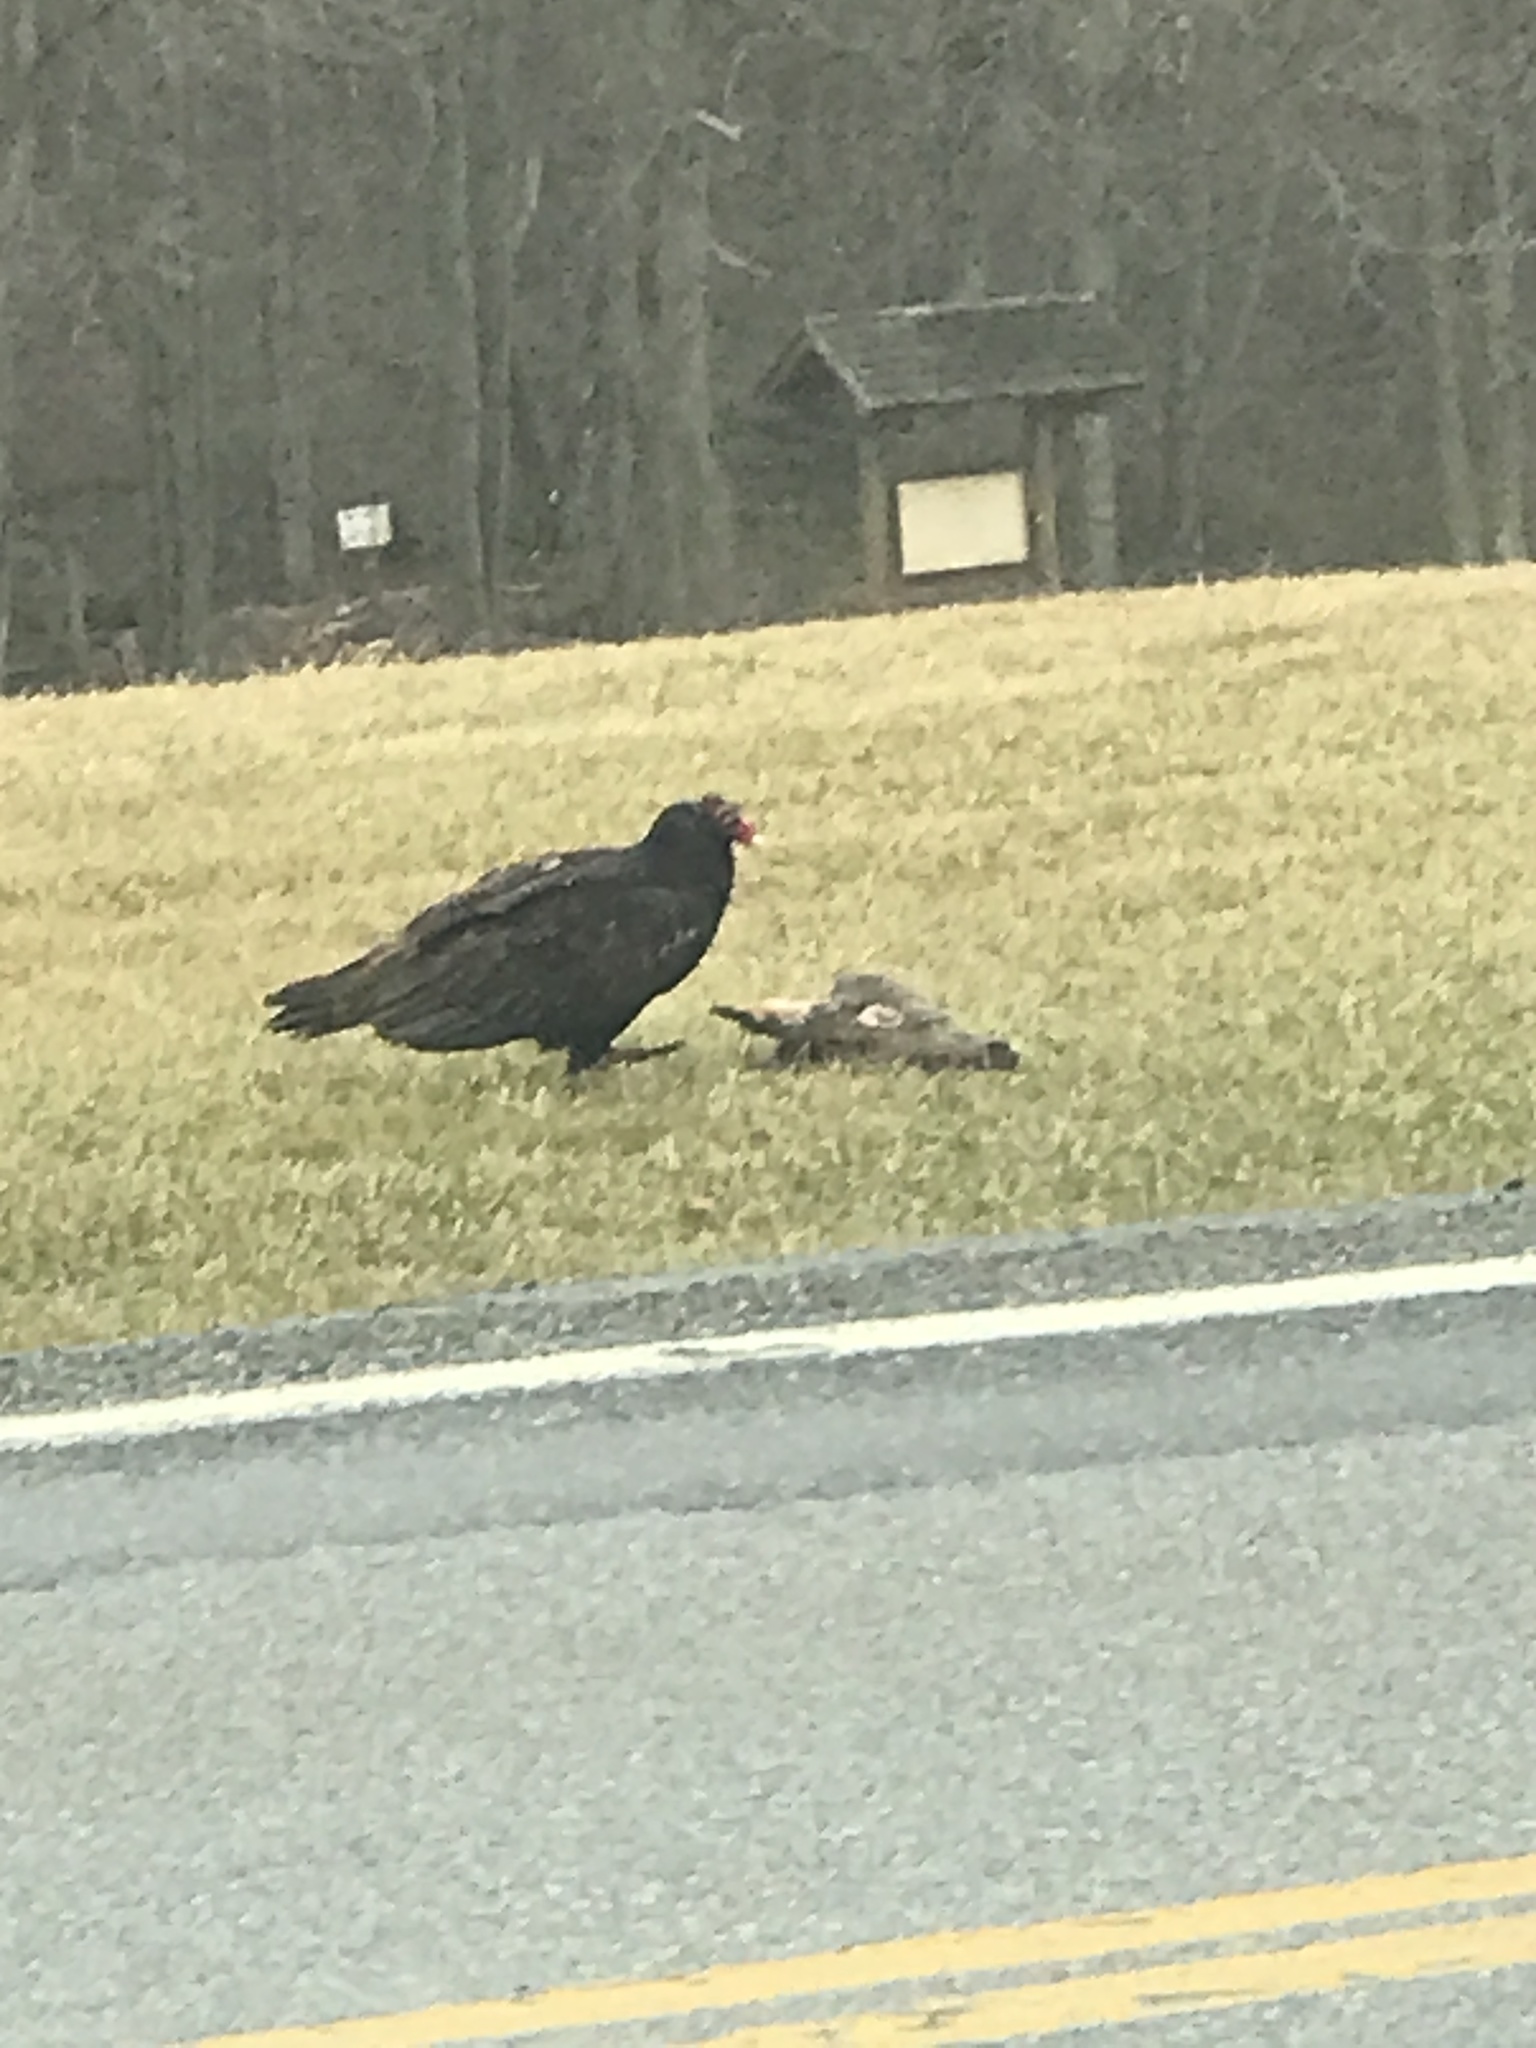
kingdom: Animalia
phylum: Chordata
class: Aves
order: Accipitriformes
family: Cathartidae
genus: Cathartes
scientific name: Cathartes aura
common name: Turkey vulture
